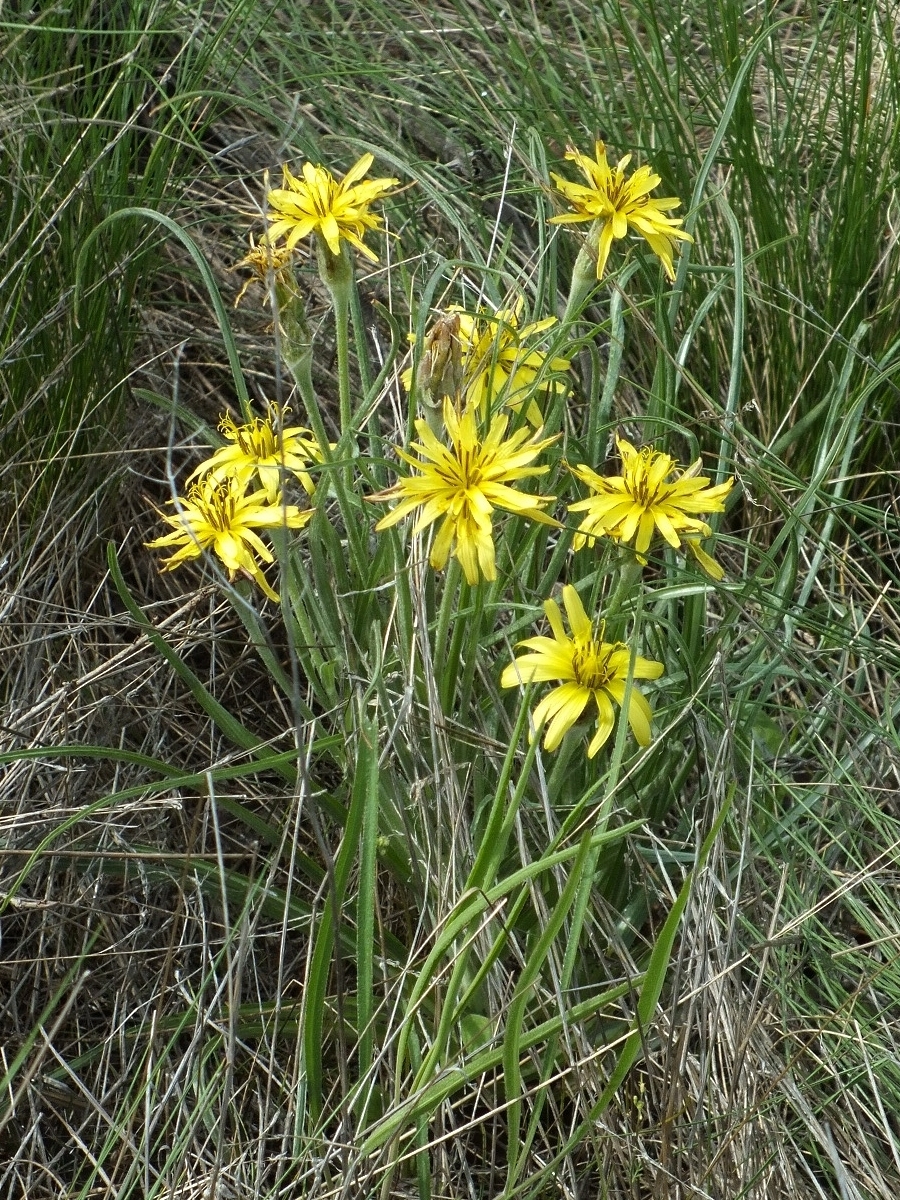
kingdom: Plantae
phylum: Tracheophyta
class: Magnoliopsida
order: Asterales
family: Asteraceae
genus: Candollea
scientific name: Candollea mollis
